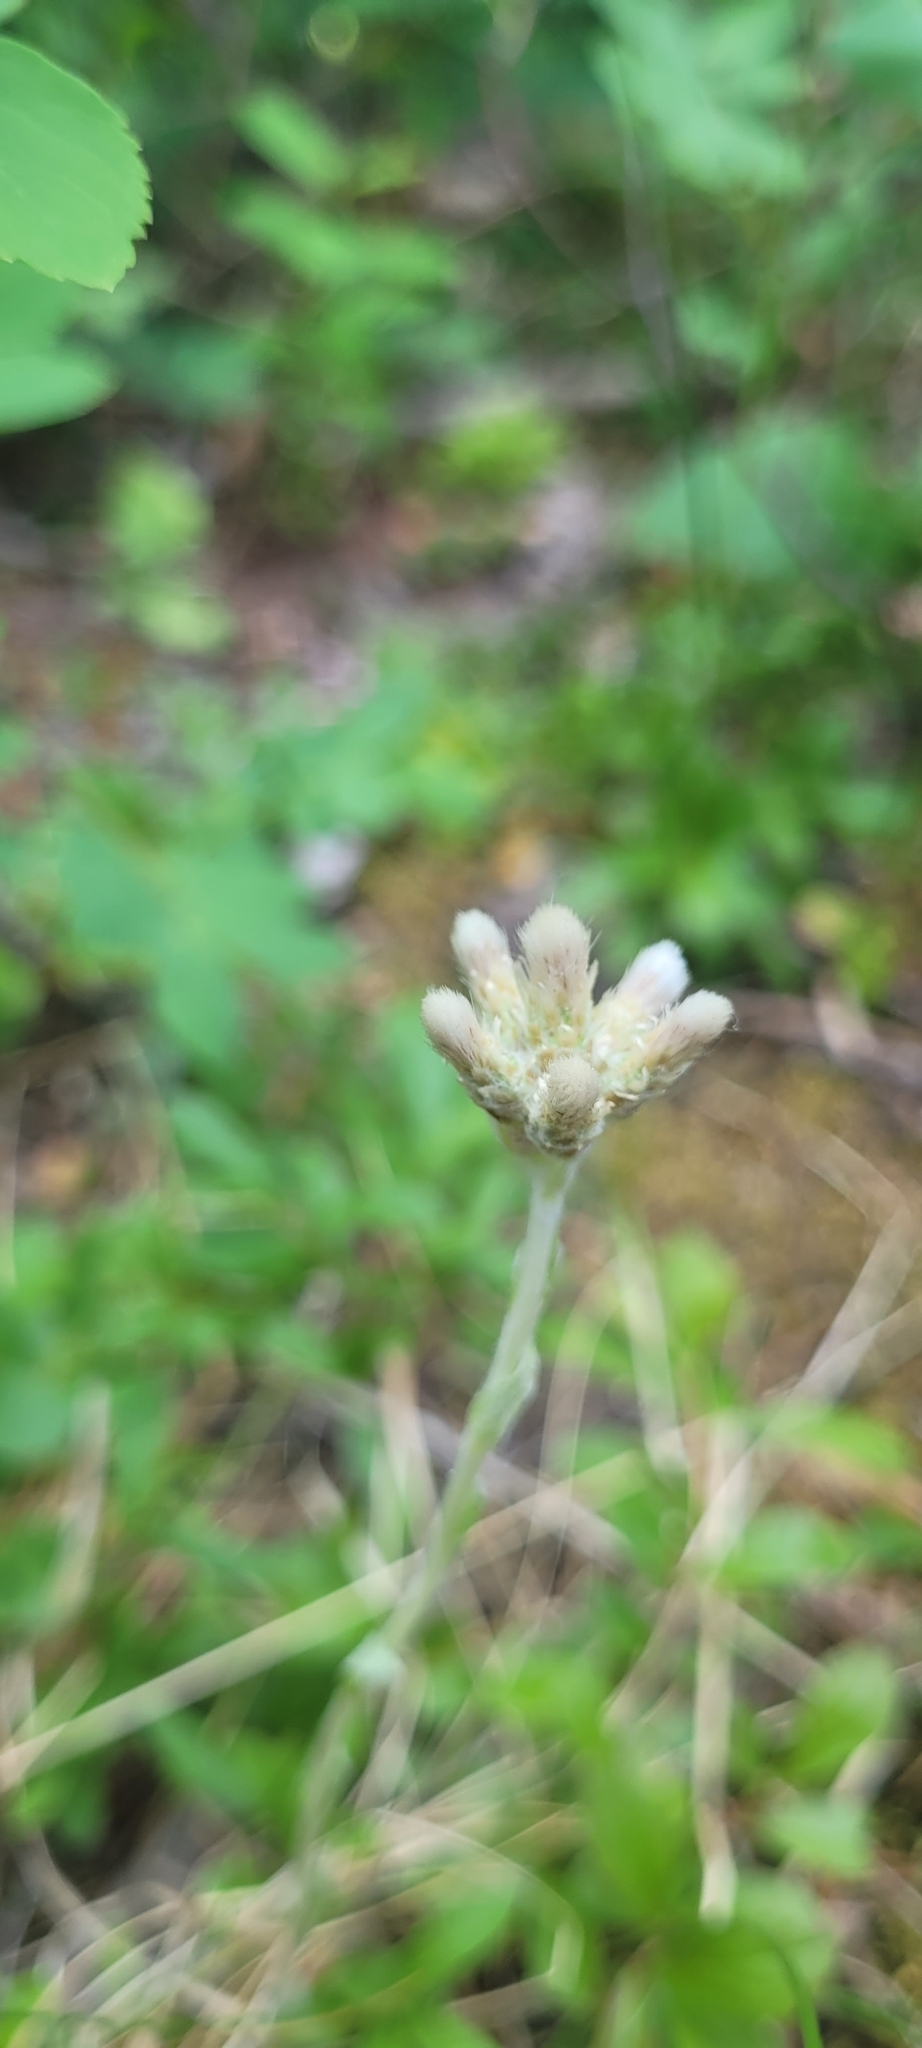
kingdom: Plantae
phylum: Tracheophyta
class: Magnoliopsida
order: Asterales
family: Asteraceae
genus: Antennaria
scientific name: Antennaria howellii
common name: Howell's pussytoes
